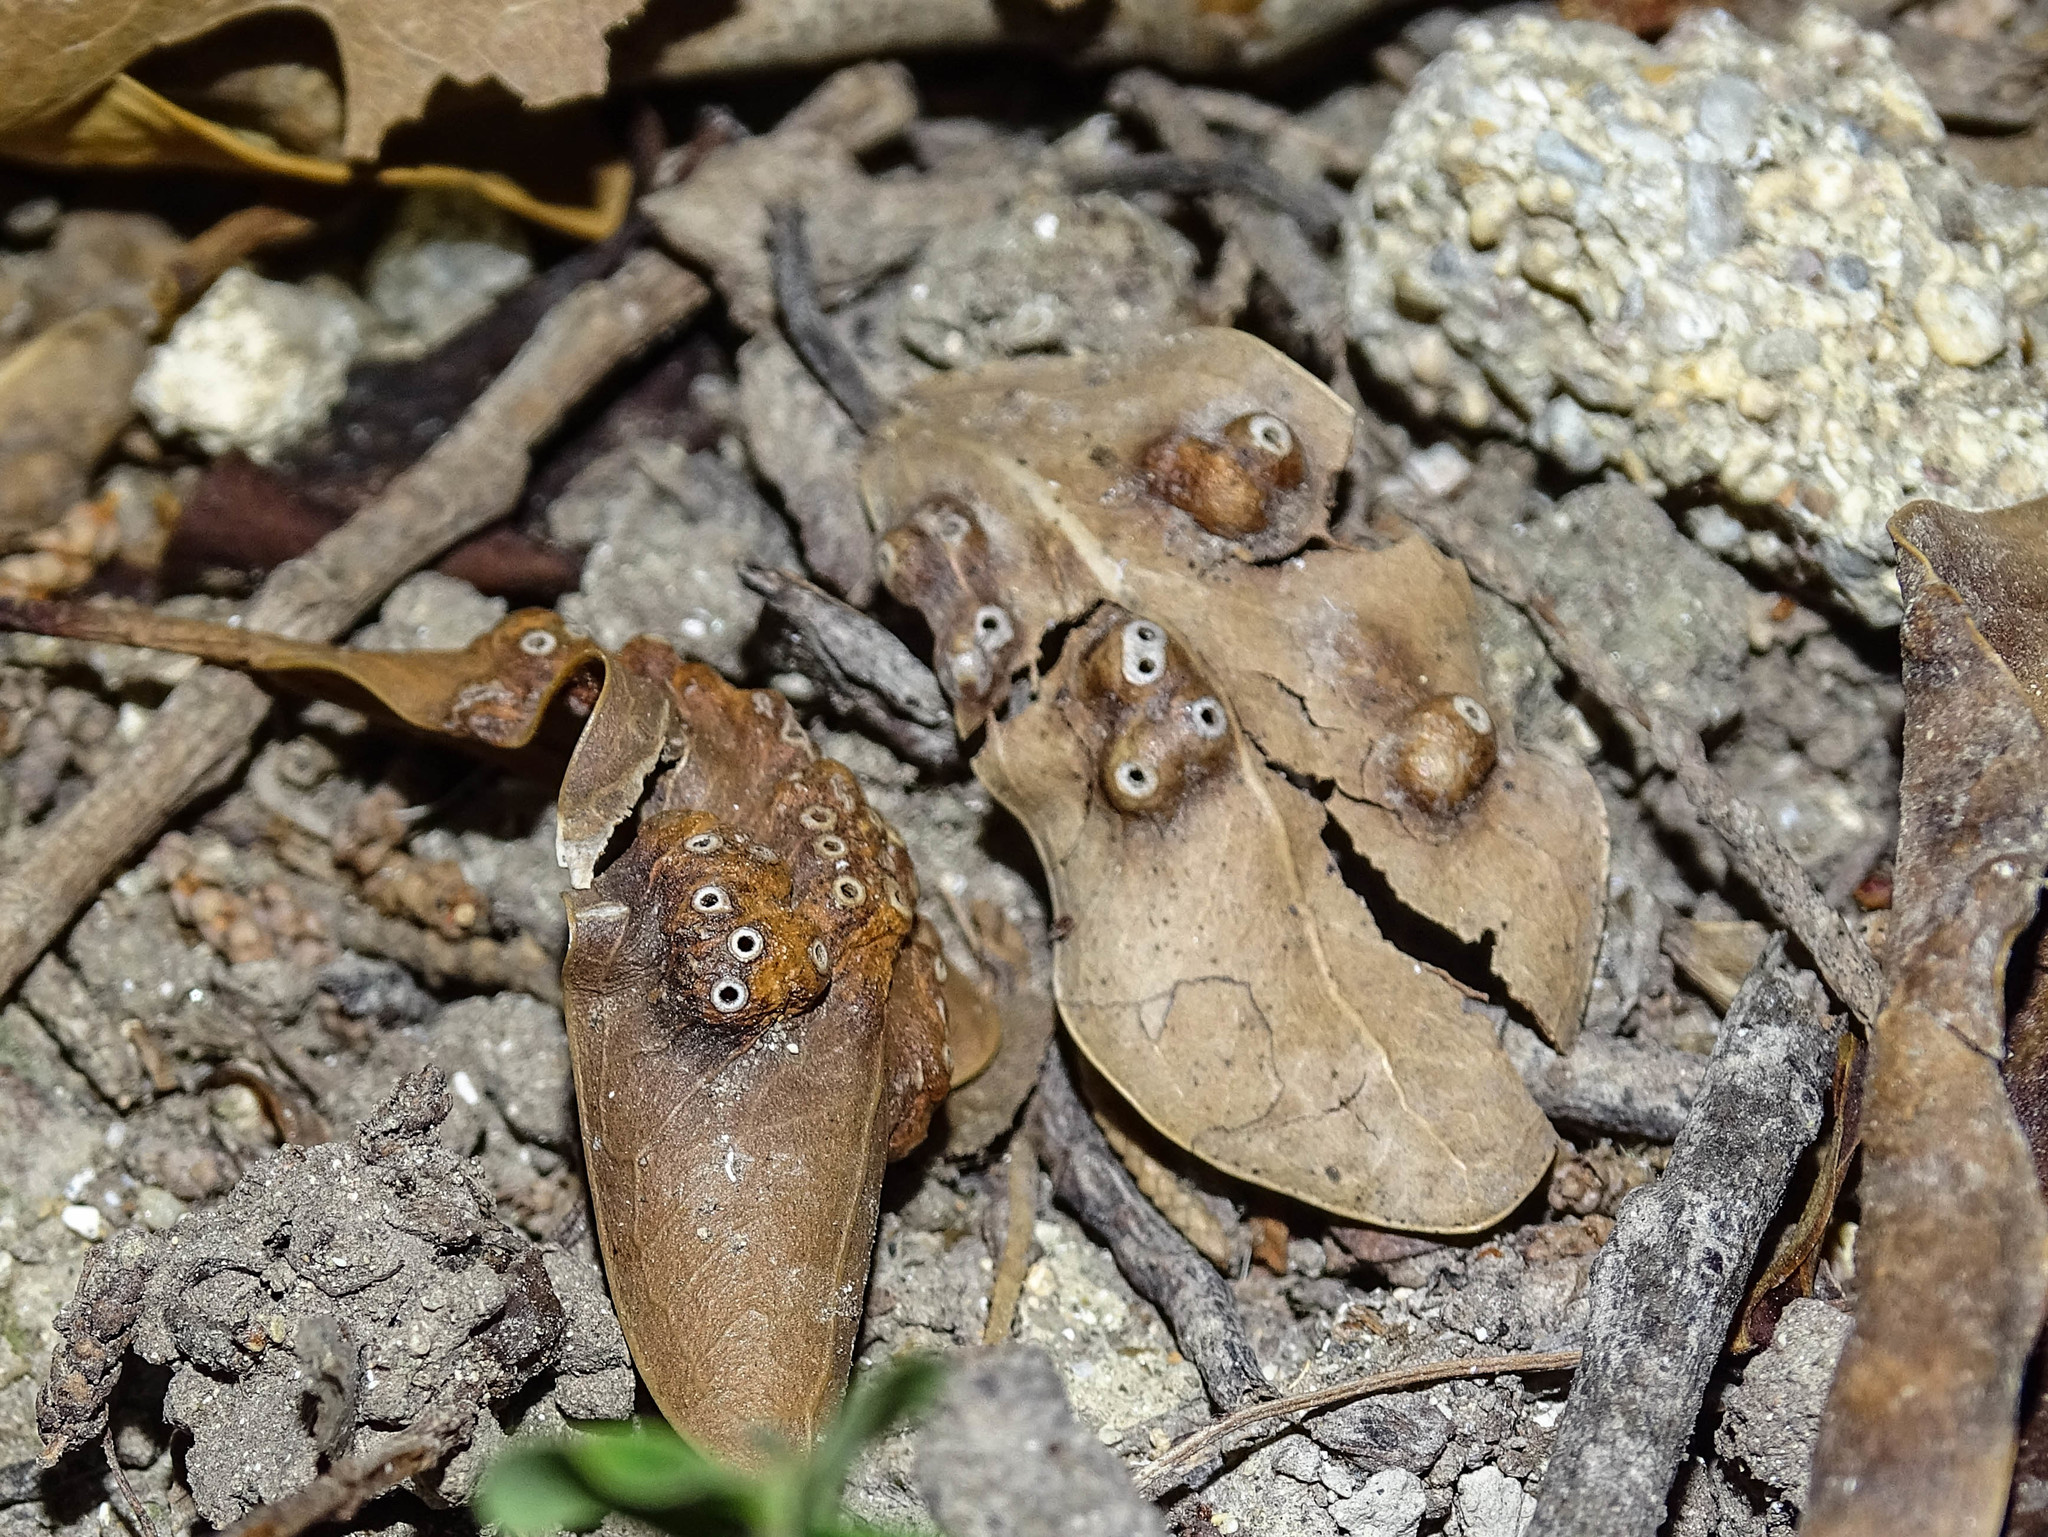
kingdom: Animalia
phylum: Arthropoda
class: Insecta
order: Hymenoptera
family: Agaonidae
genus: Josephiella
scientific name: Josephiella microcarpae
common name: Wasp
